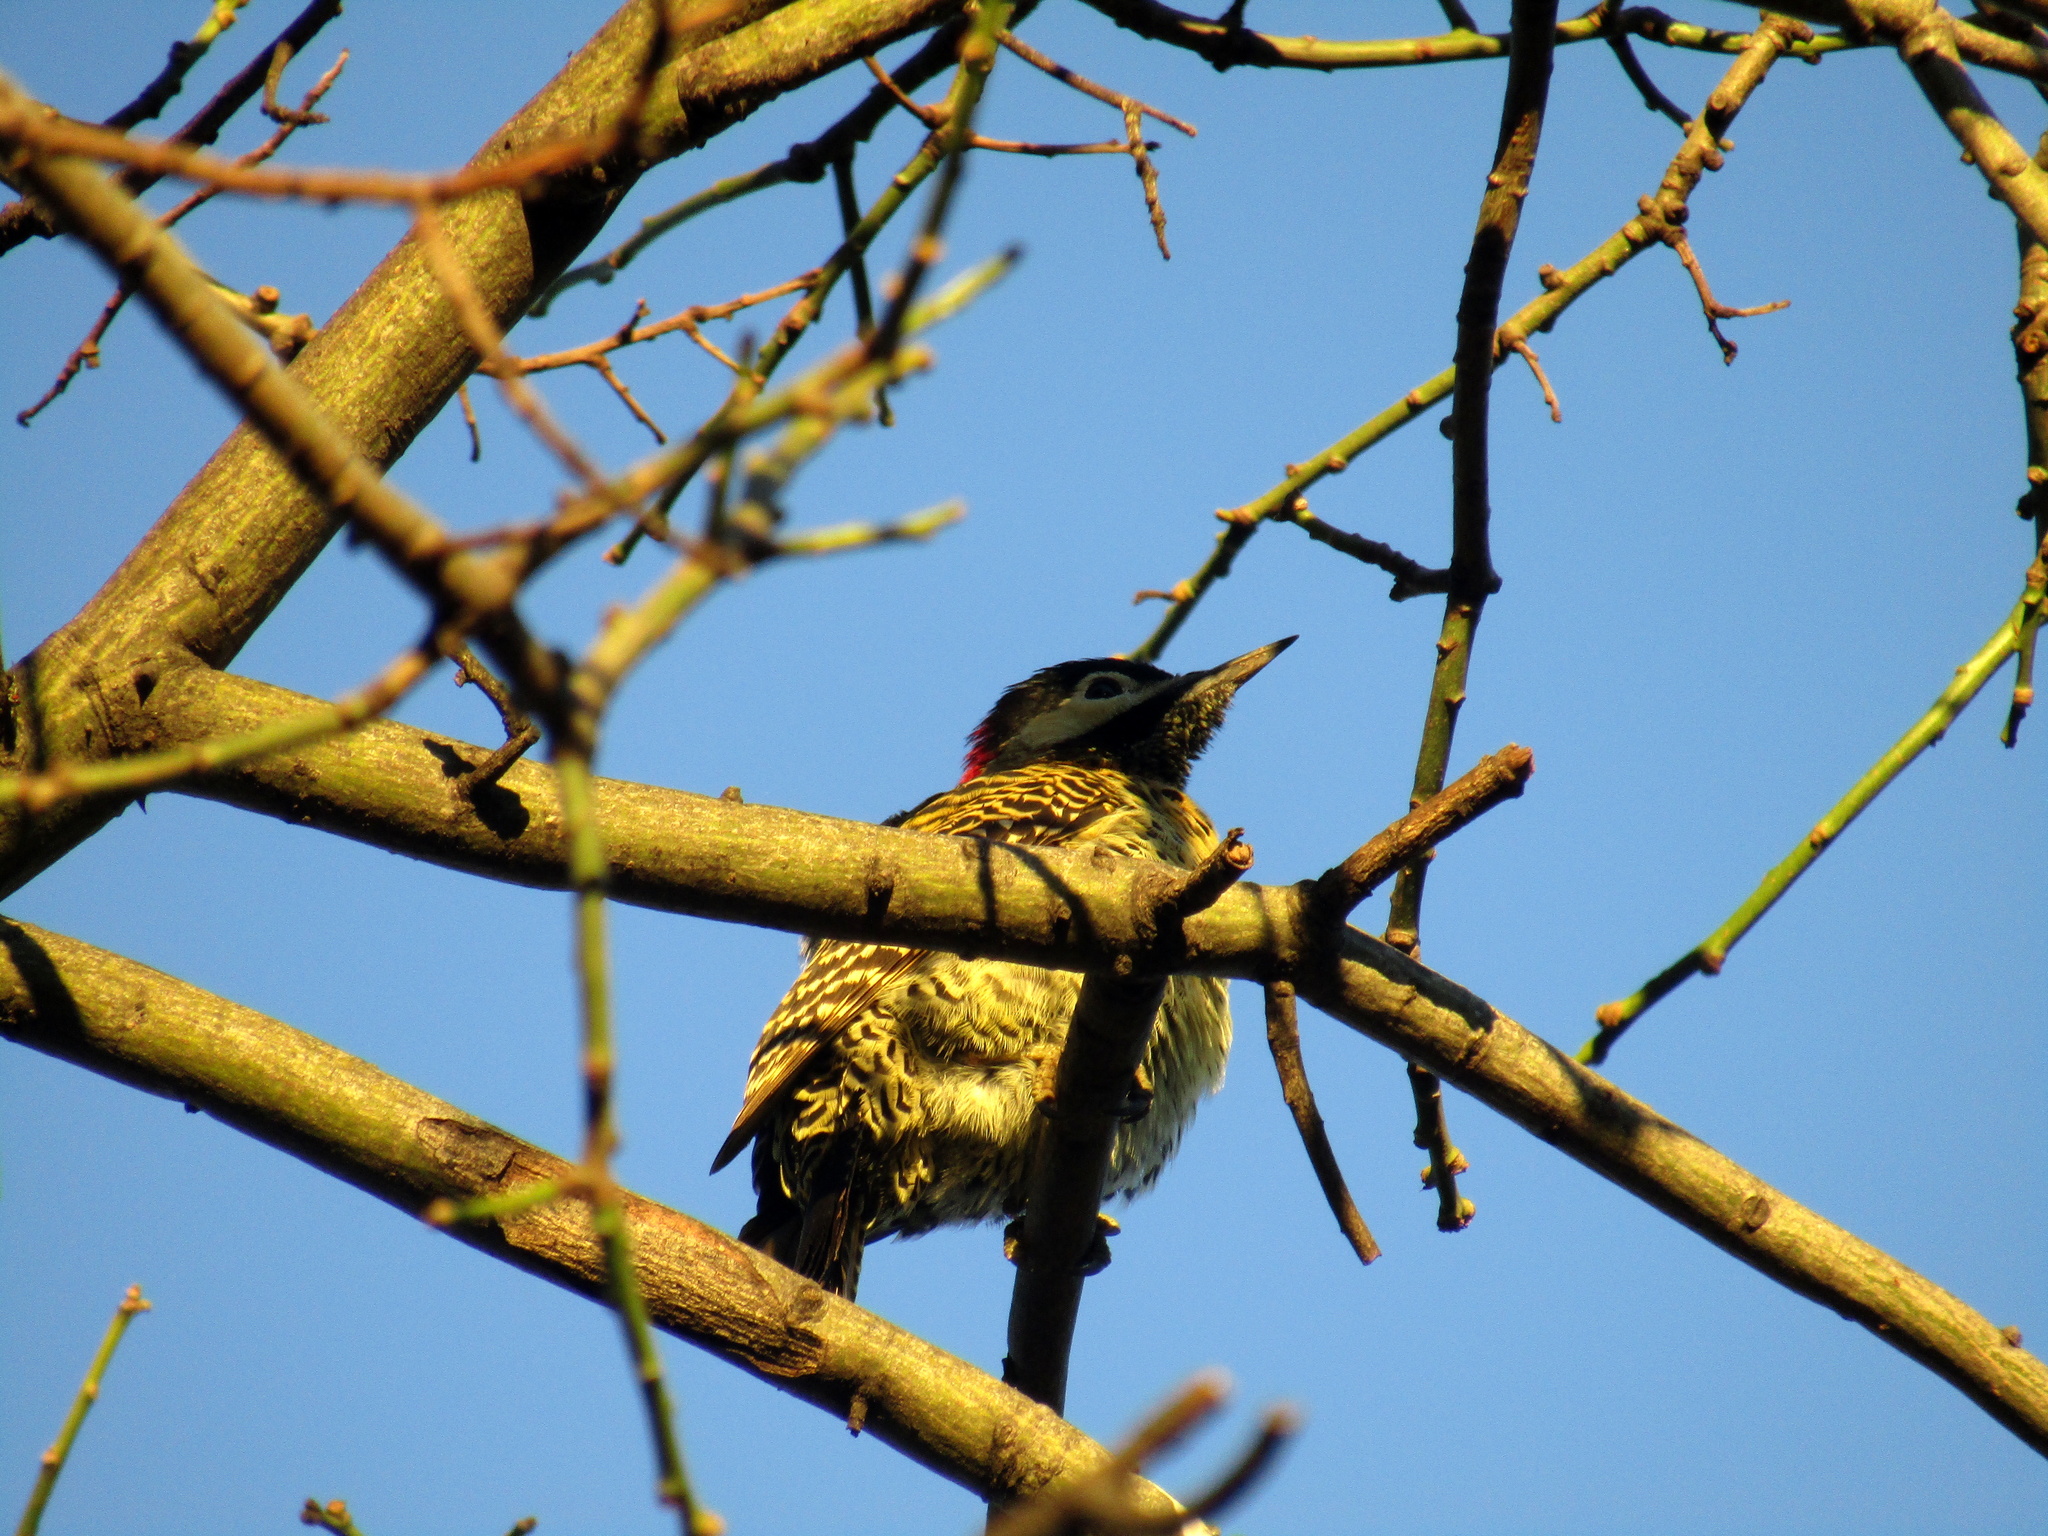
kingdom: Animalia
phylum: Chordata
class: Aves
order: Piciformes
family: Picidae
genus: Colaptes
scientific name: Colaptes melanochloros
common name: Green-barred woodpecker
